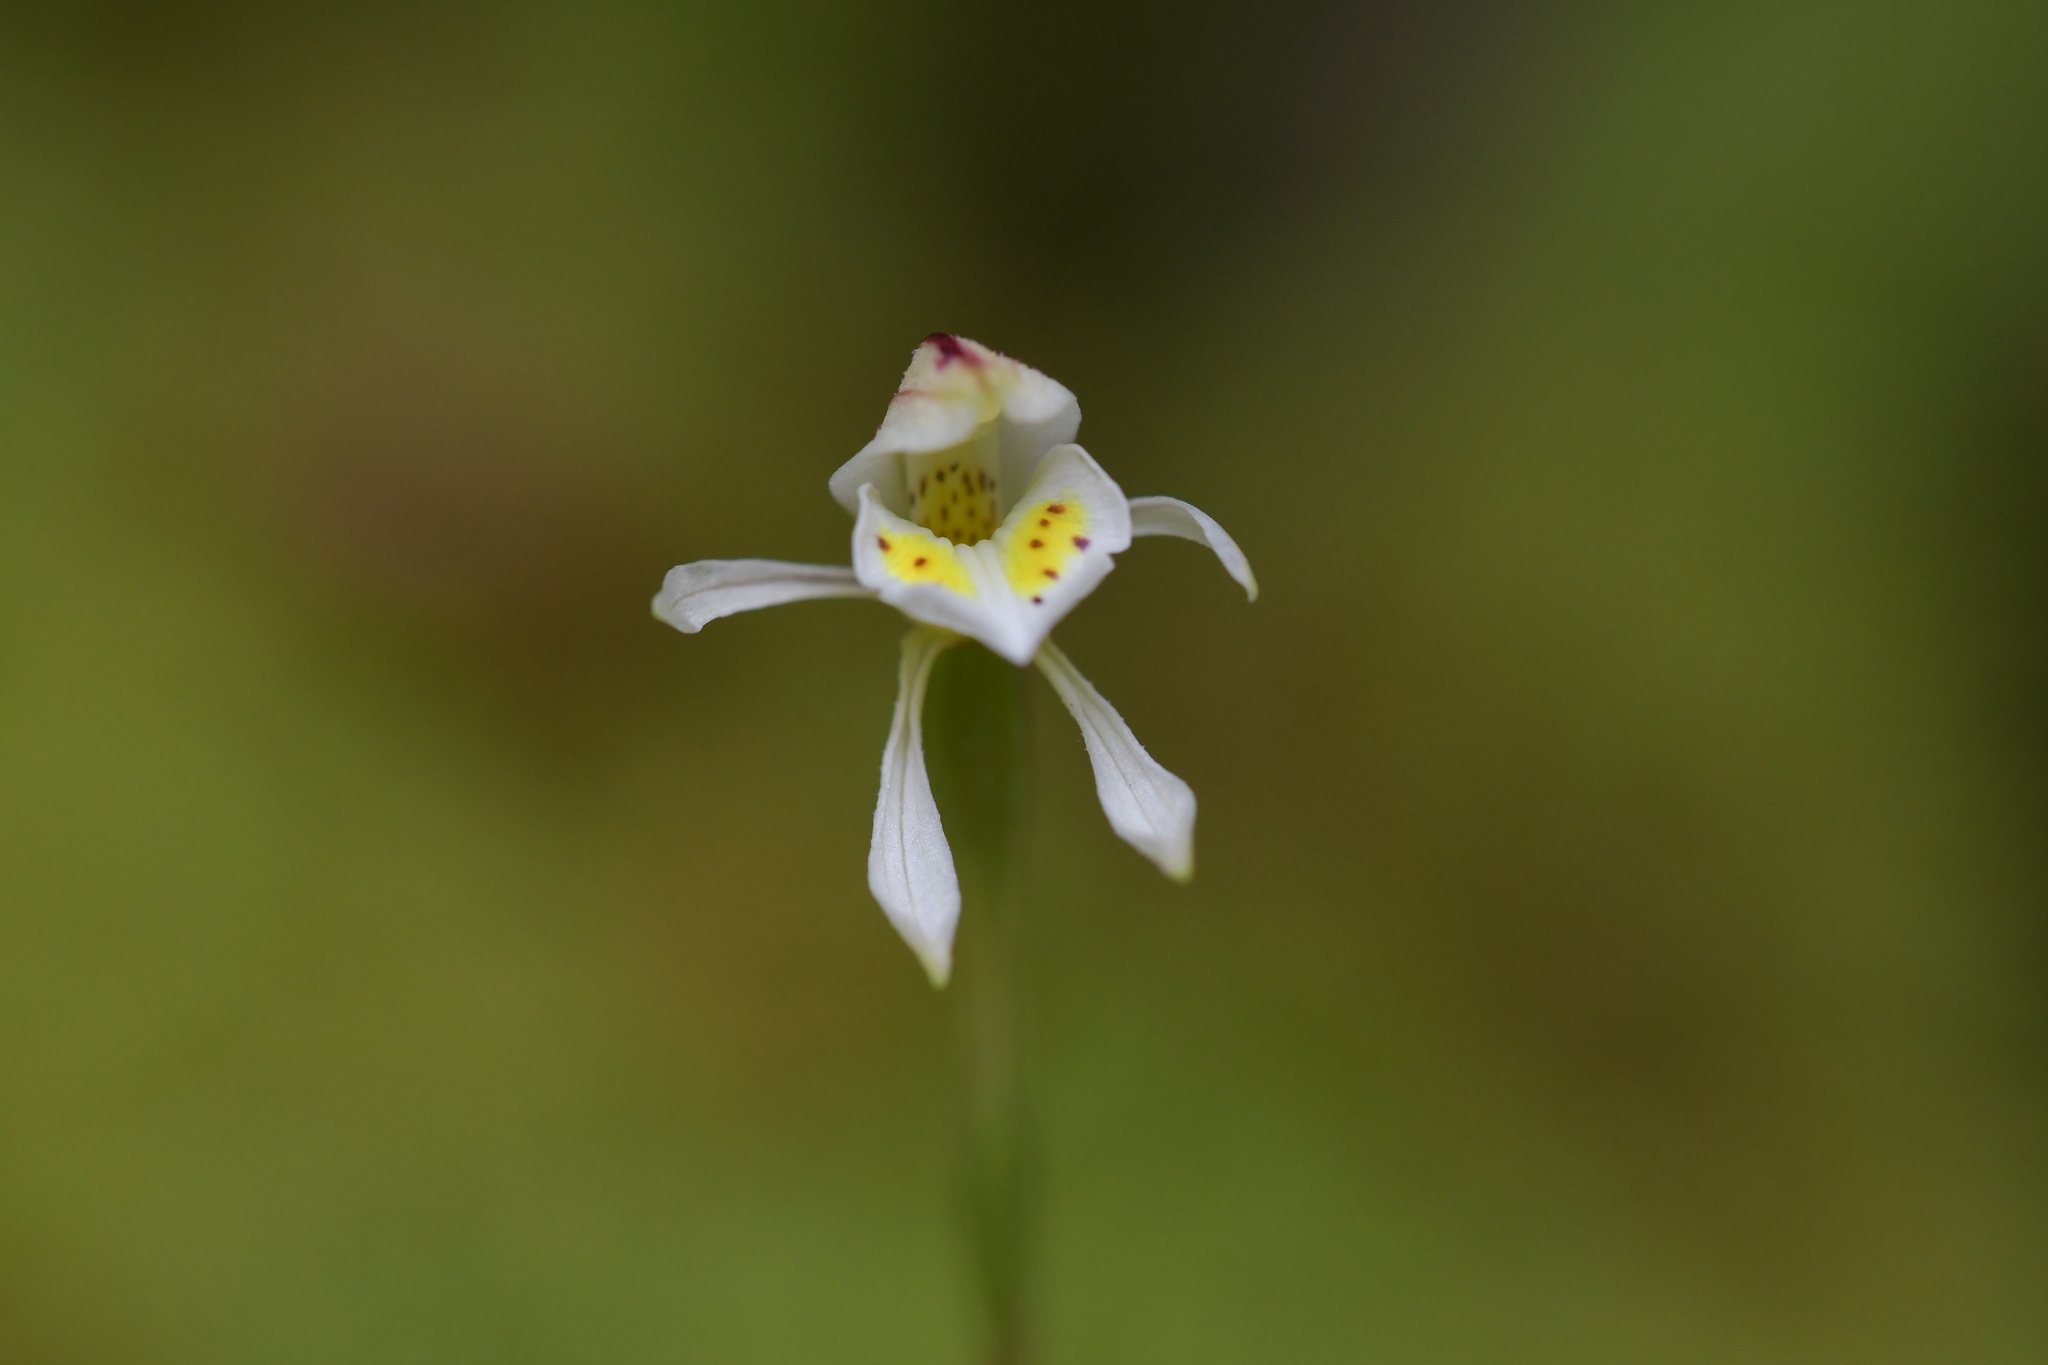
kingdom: Plantae
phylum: Tracheophyta
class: Liliopsida
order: Asparagales
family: Orchidaceae
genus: Aporostylis
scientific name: Aporostylis bifolia
